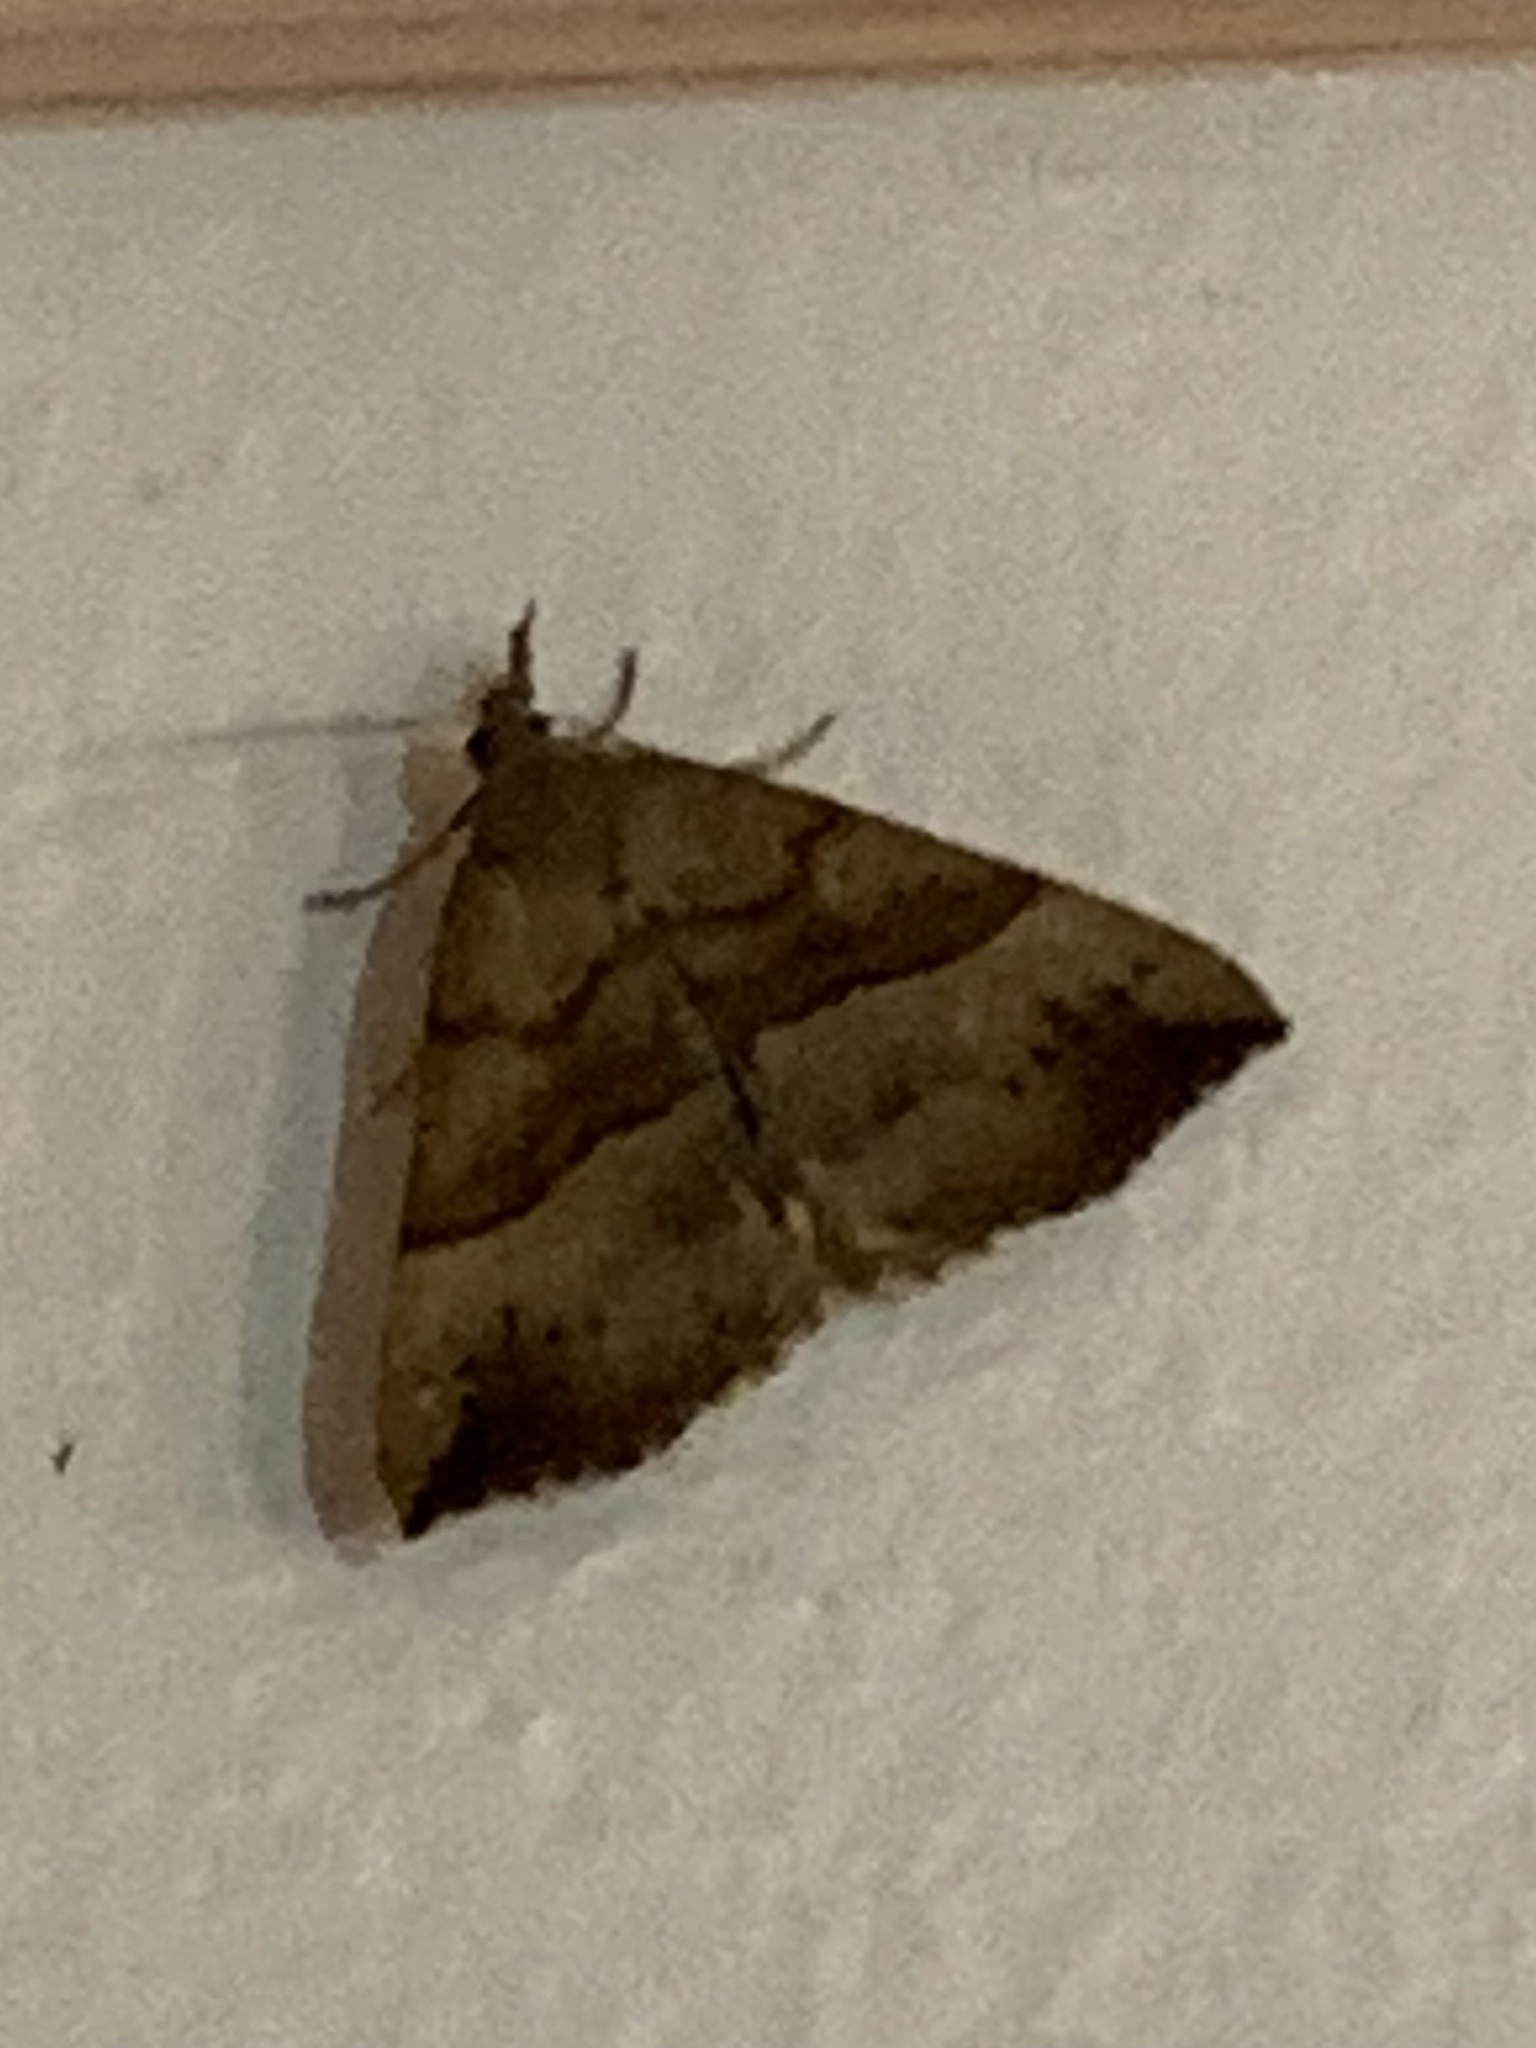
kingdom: Animalia
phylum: Arthropoda
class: Insecta
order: Lepidoptera
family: Erebidae
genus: Hypena
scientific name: Hypena proboscidalis
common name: Snout
